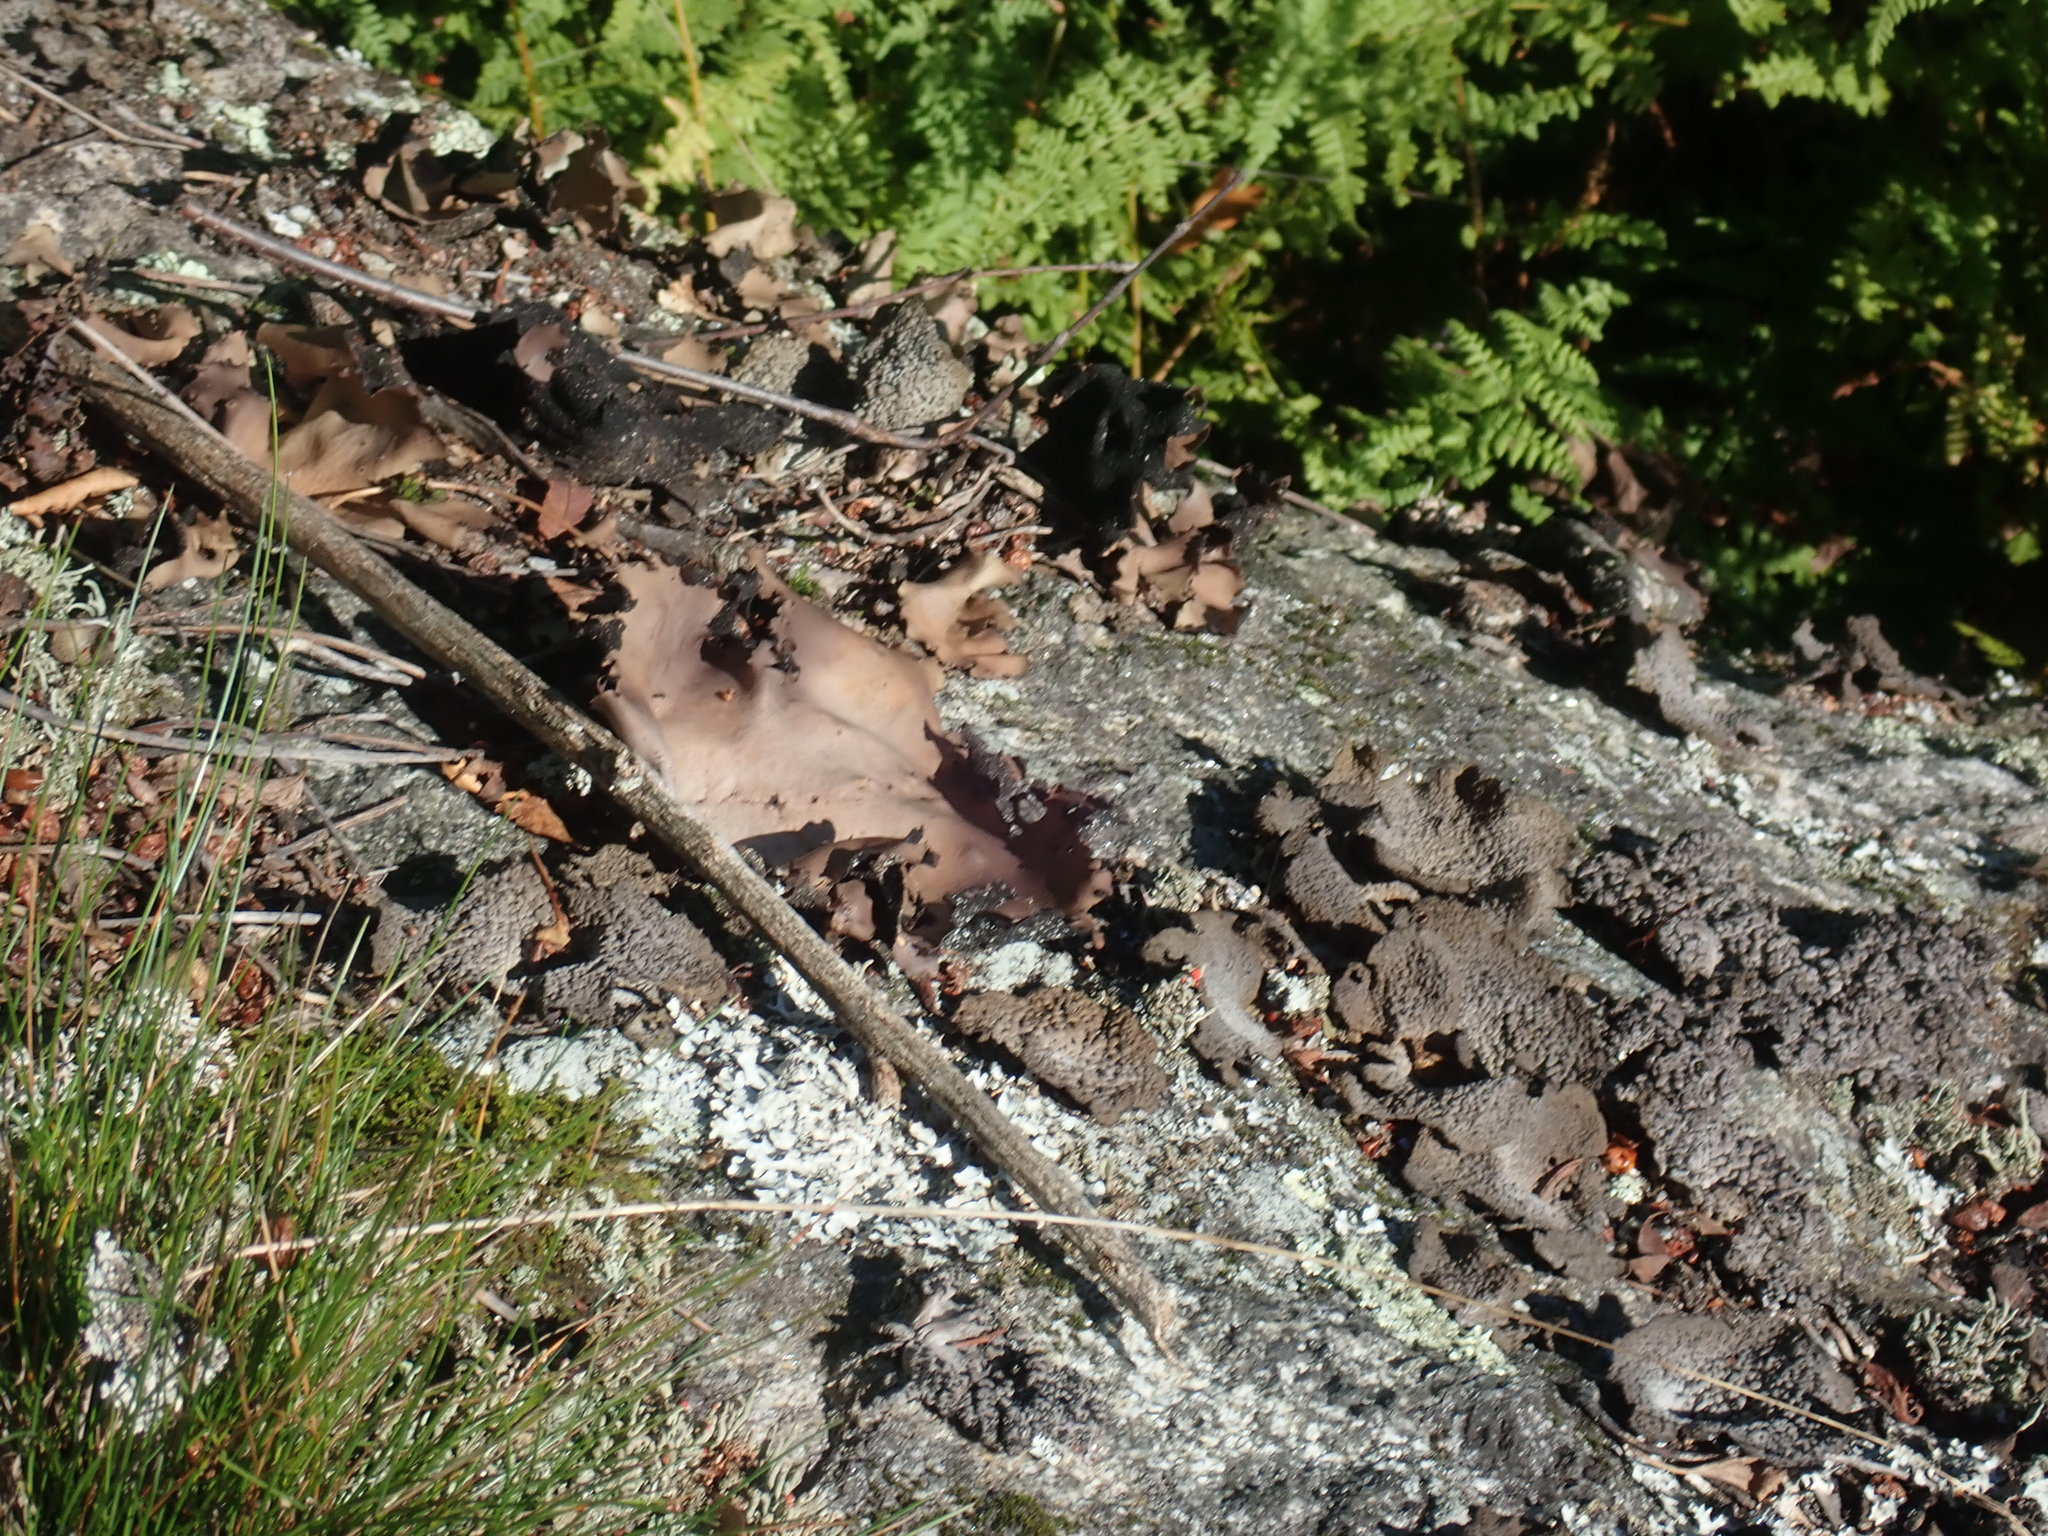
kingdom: Fungi
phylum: Ascomycota
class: Lecanoromycetes
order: Umbilicariales
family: Umbilicariaceae
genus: Umbilicaria
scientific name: Umbilicaria mammulata
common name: Smooth rock tripe
